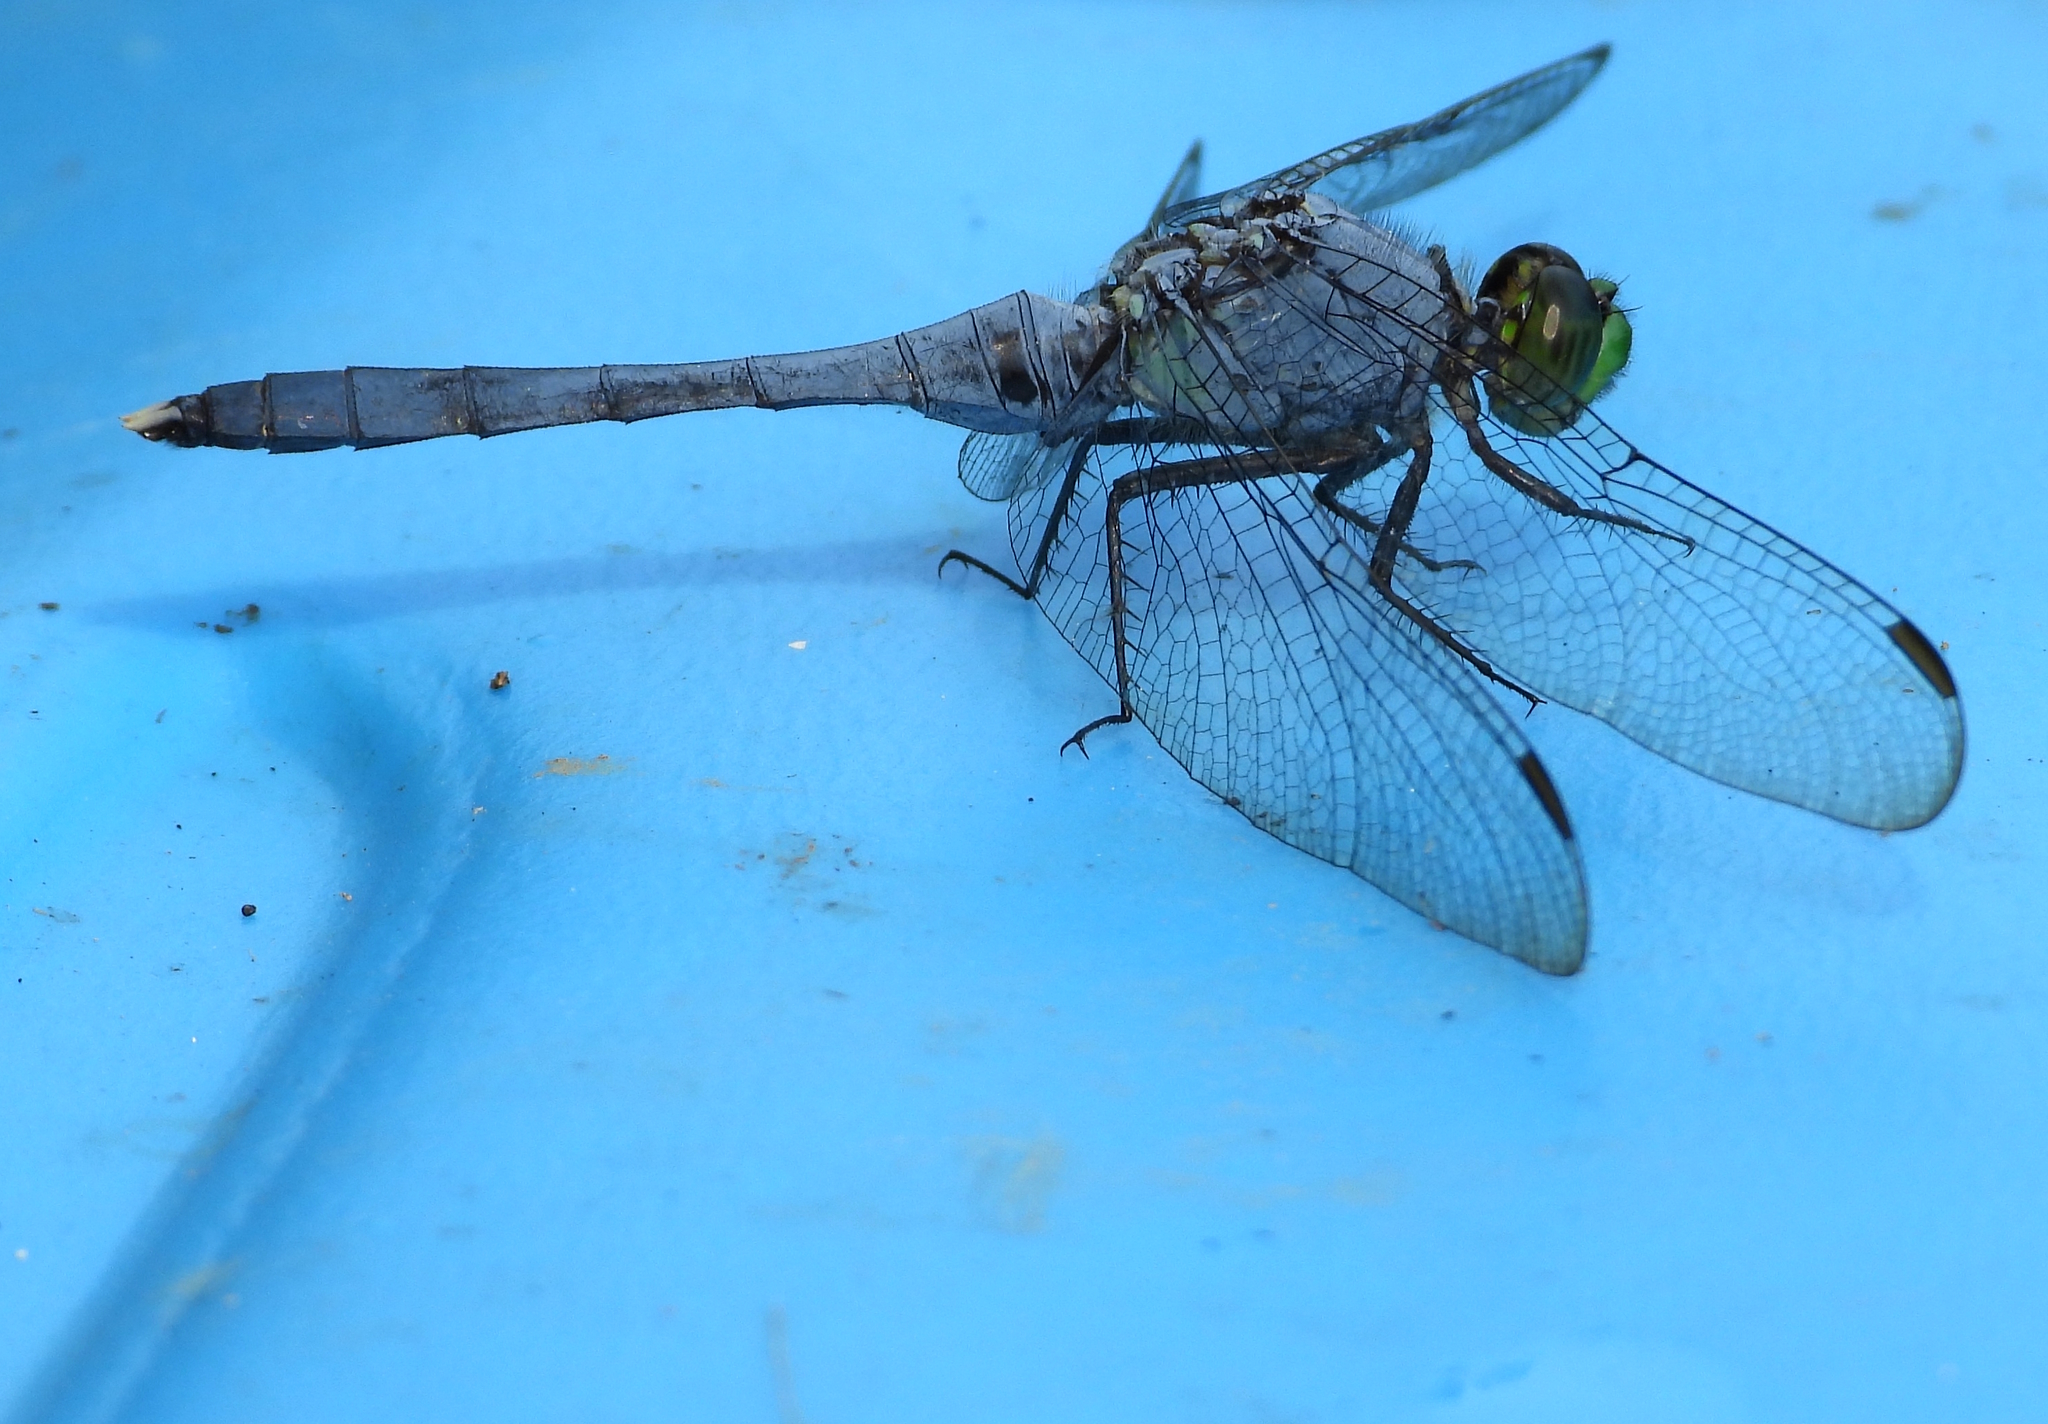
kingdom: Animalia
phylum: Arthropoda
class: Insecta
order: Odonata
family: Libellulidae
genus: Erythemis
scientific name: Erythemis simplicicollis
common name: Eastern pondhawk
